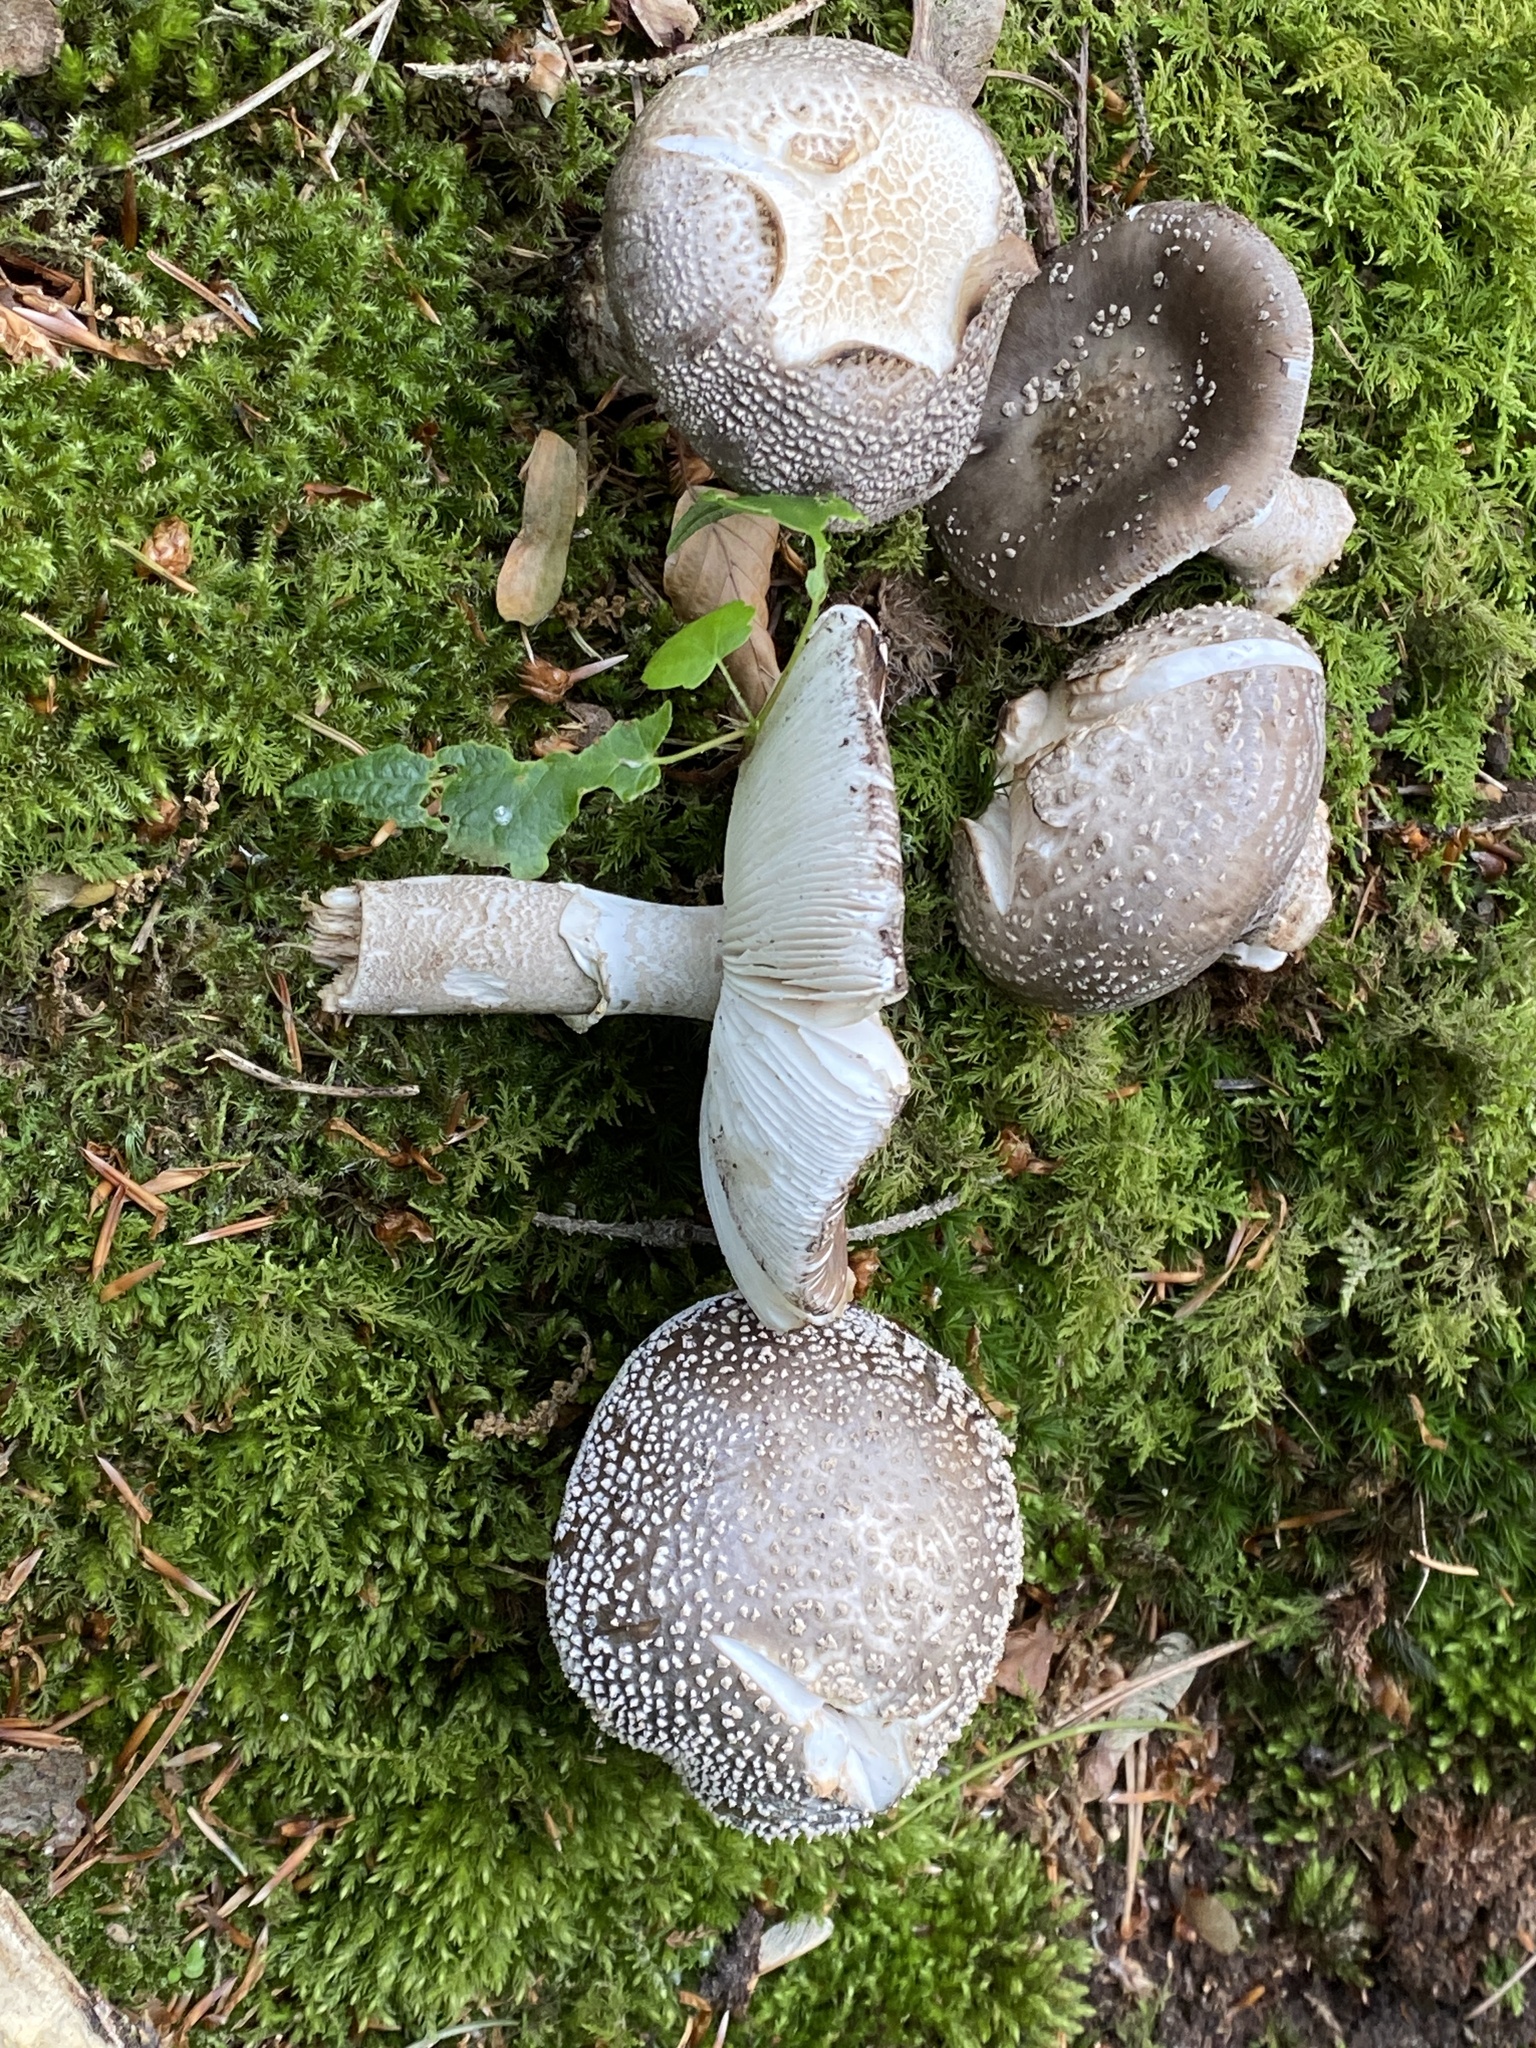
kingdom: Fungi
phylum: Basidiomycota
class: Agaricomycetes
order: Agaricales
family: Amanitaceae
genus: Amanita
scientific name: Amanita rubescens
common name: Blusher
